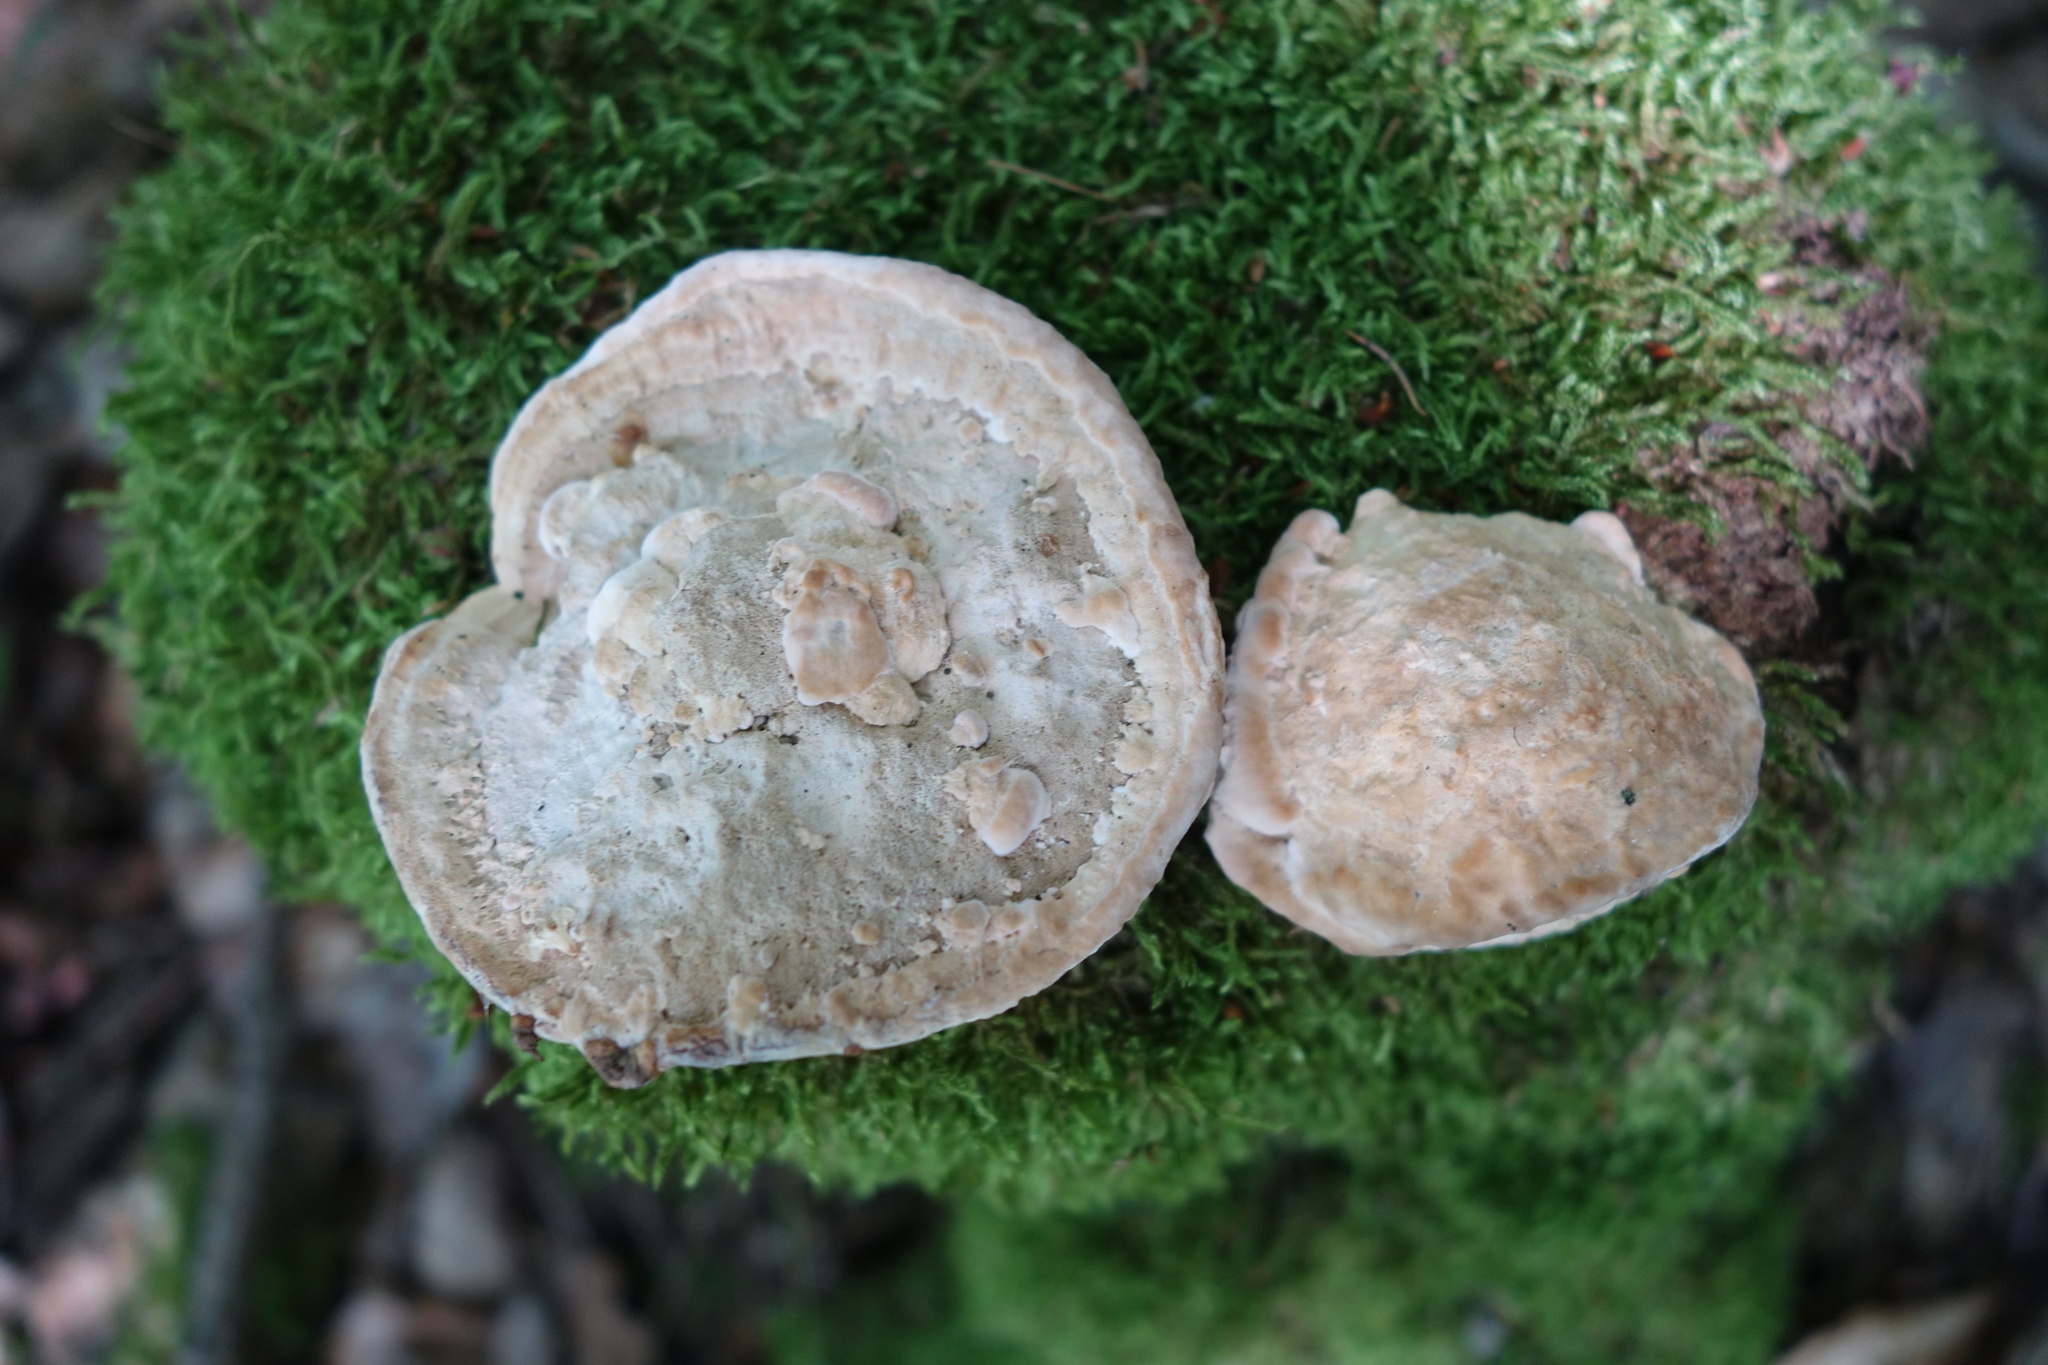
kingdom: Fungi
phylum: Basidiomycota
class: Agaricomycetes
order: Polyporales
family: Fomitopsidaceae
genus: Fomitopsis
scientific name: Fomitopsis
